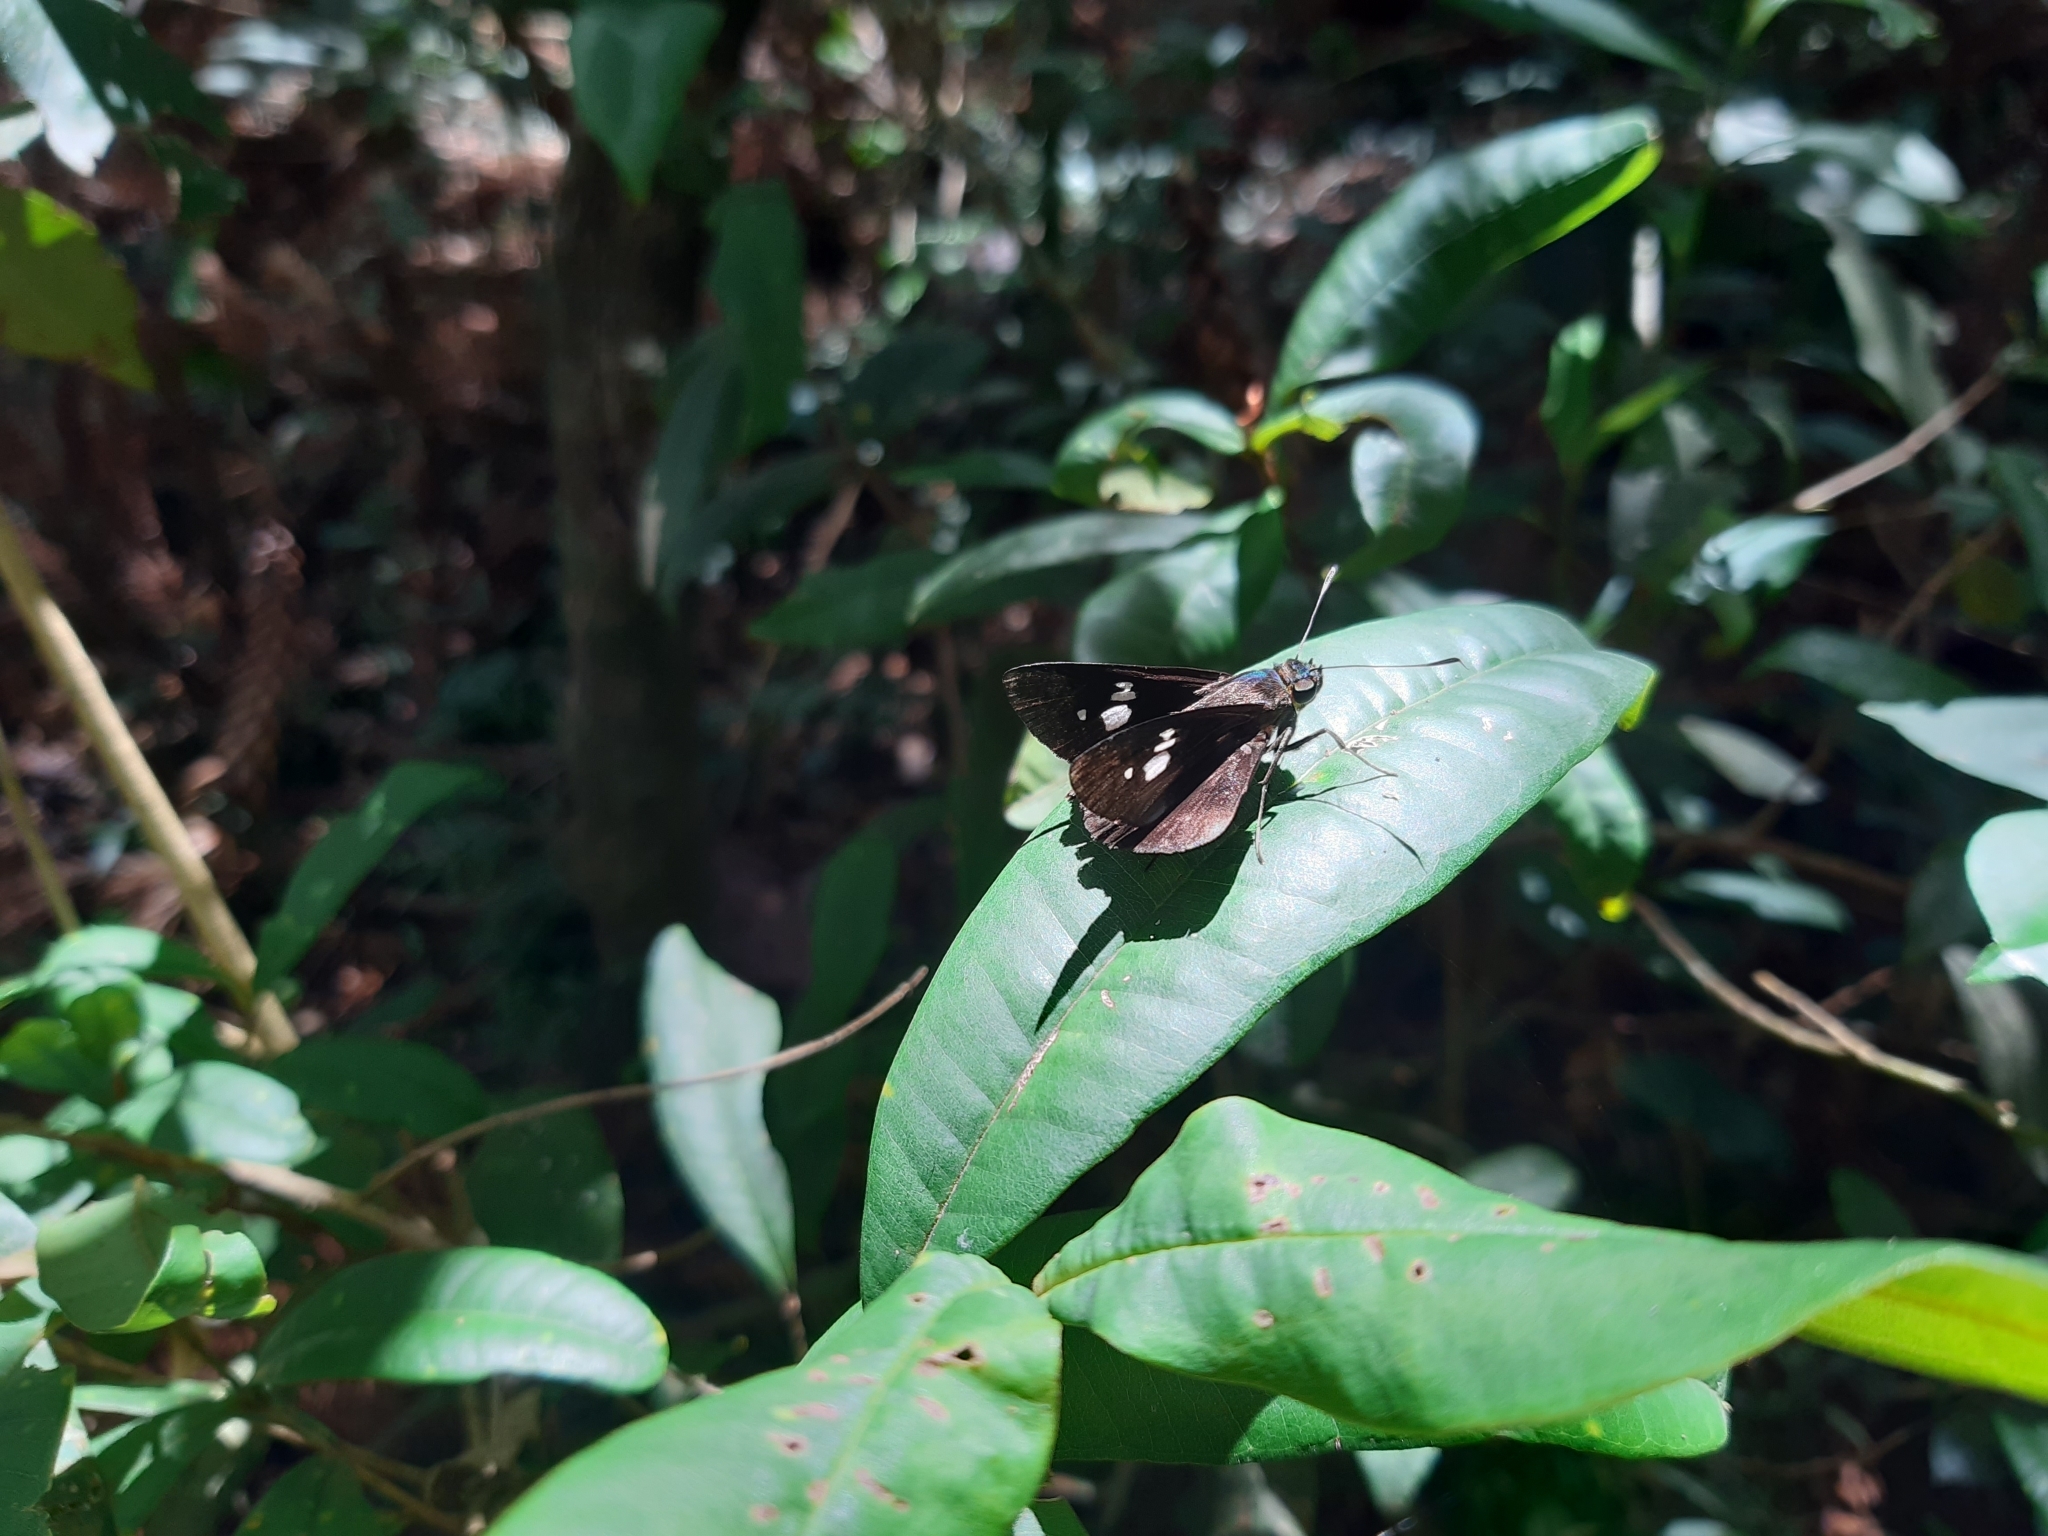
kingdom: Animalia
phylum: Arthropoda
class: Insecta
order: Lepidoptera
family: Hesperiidae
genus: Cynea
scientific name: Cynea trimaculata
